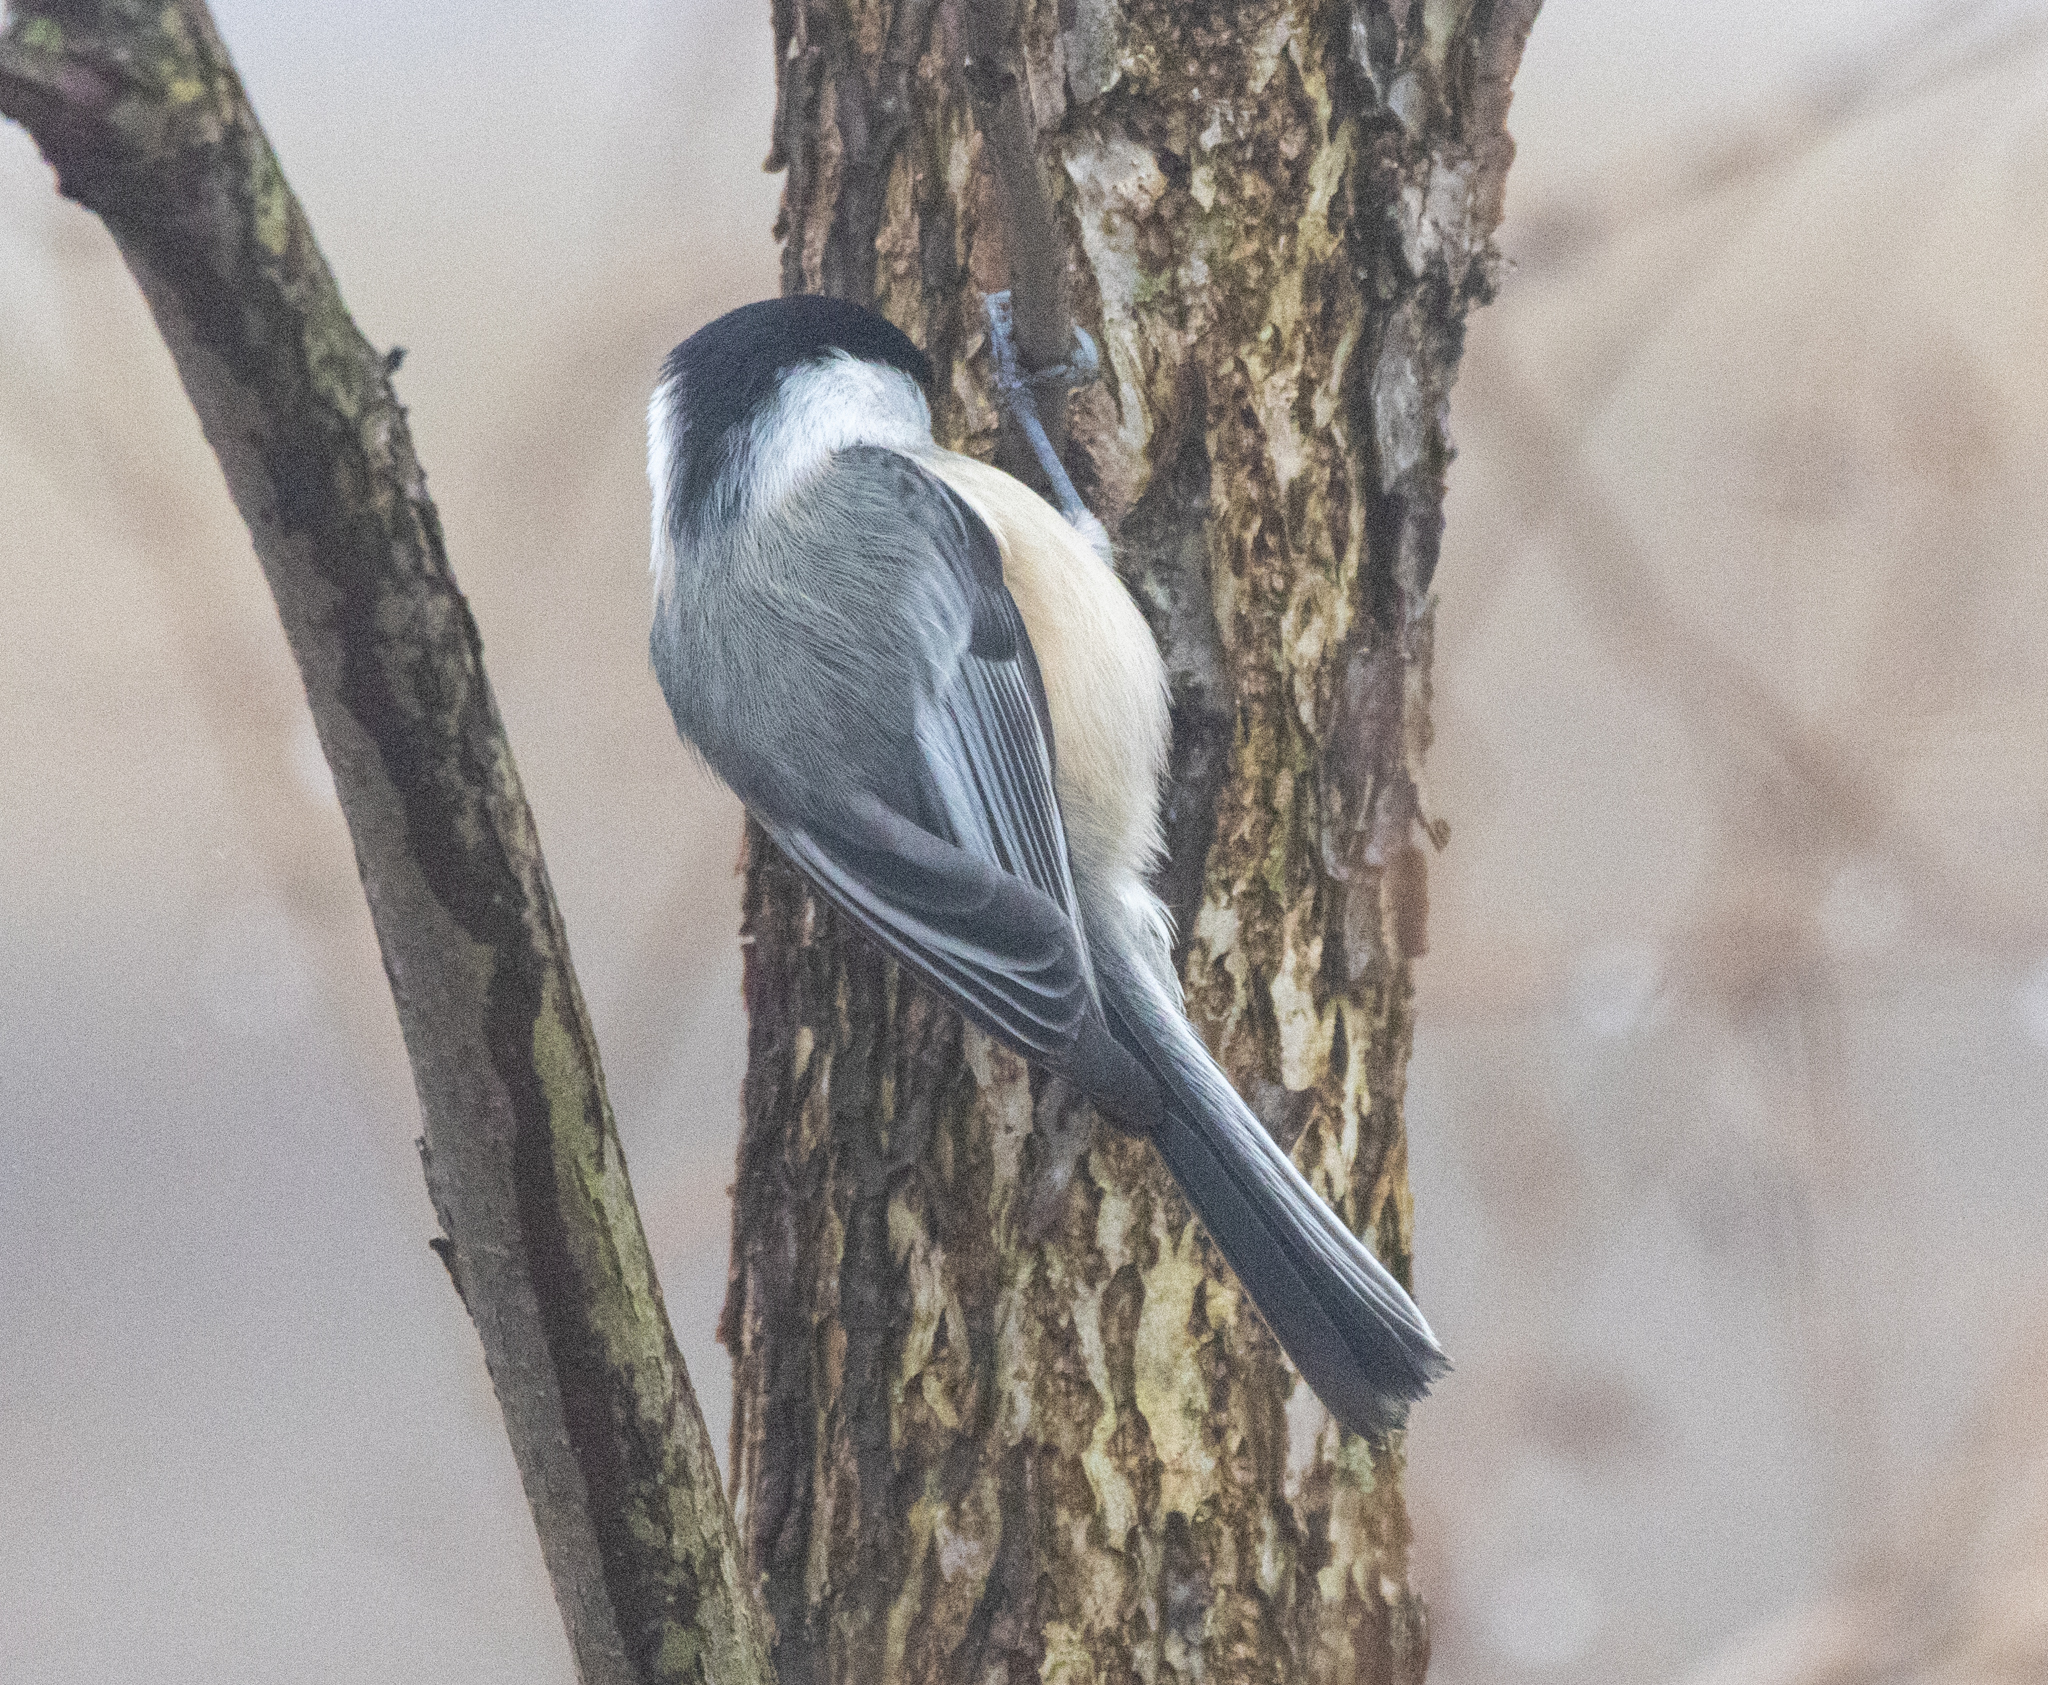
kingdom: Animalia
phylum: Chordata
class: Aves
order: Passeriformes
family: Paridae
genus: Poecile
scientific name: Poecile atricapillus
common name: Black-capped chickadee
